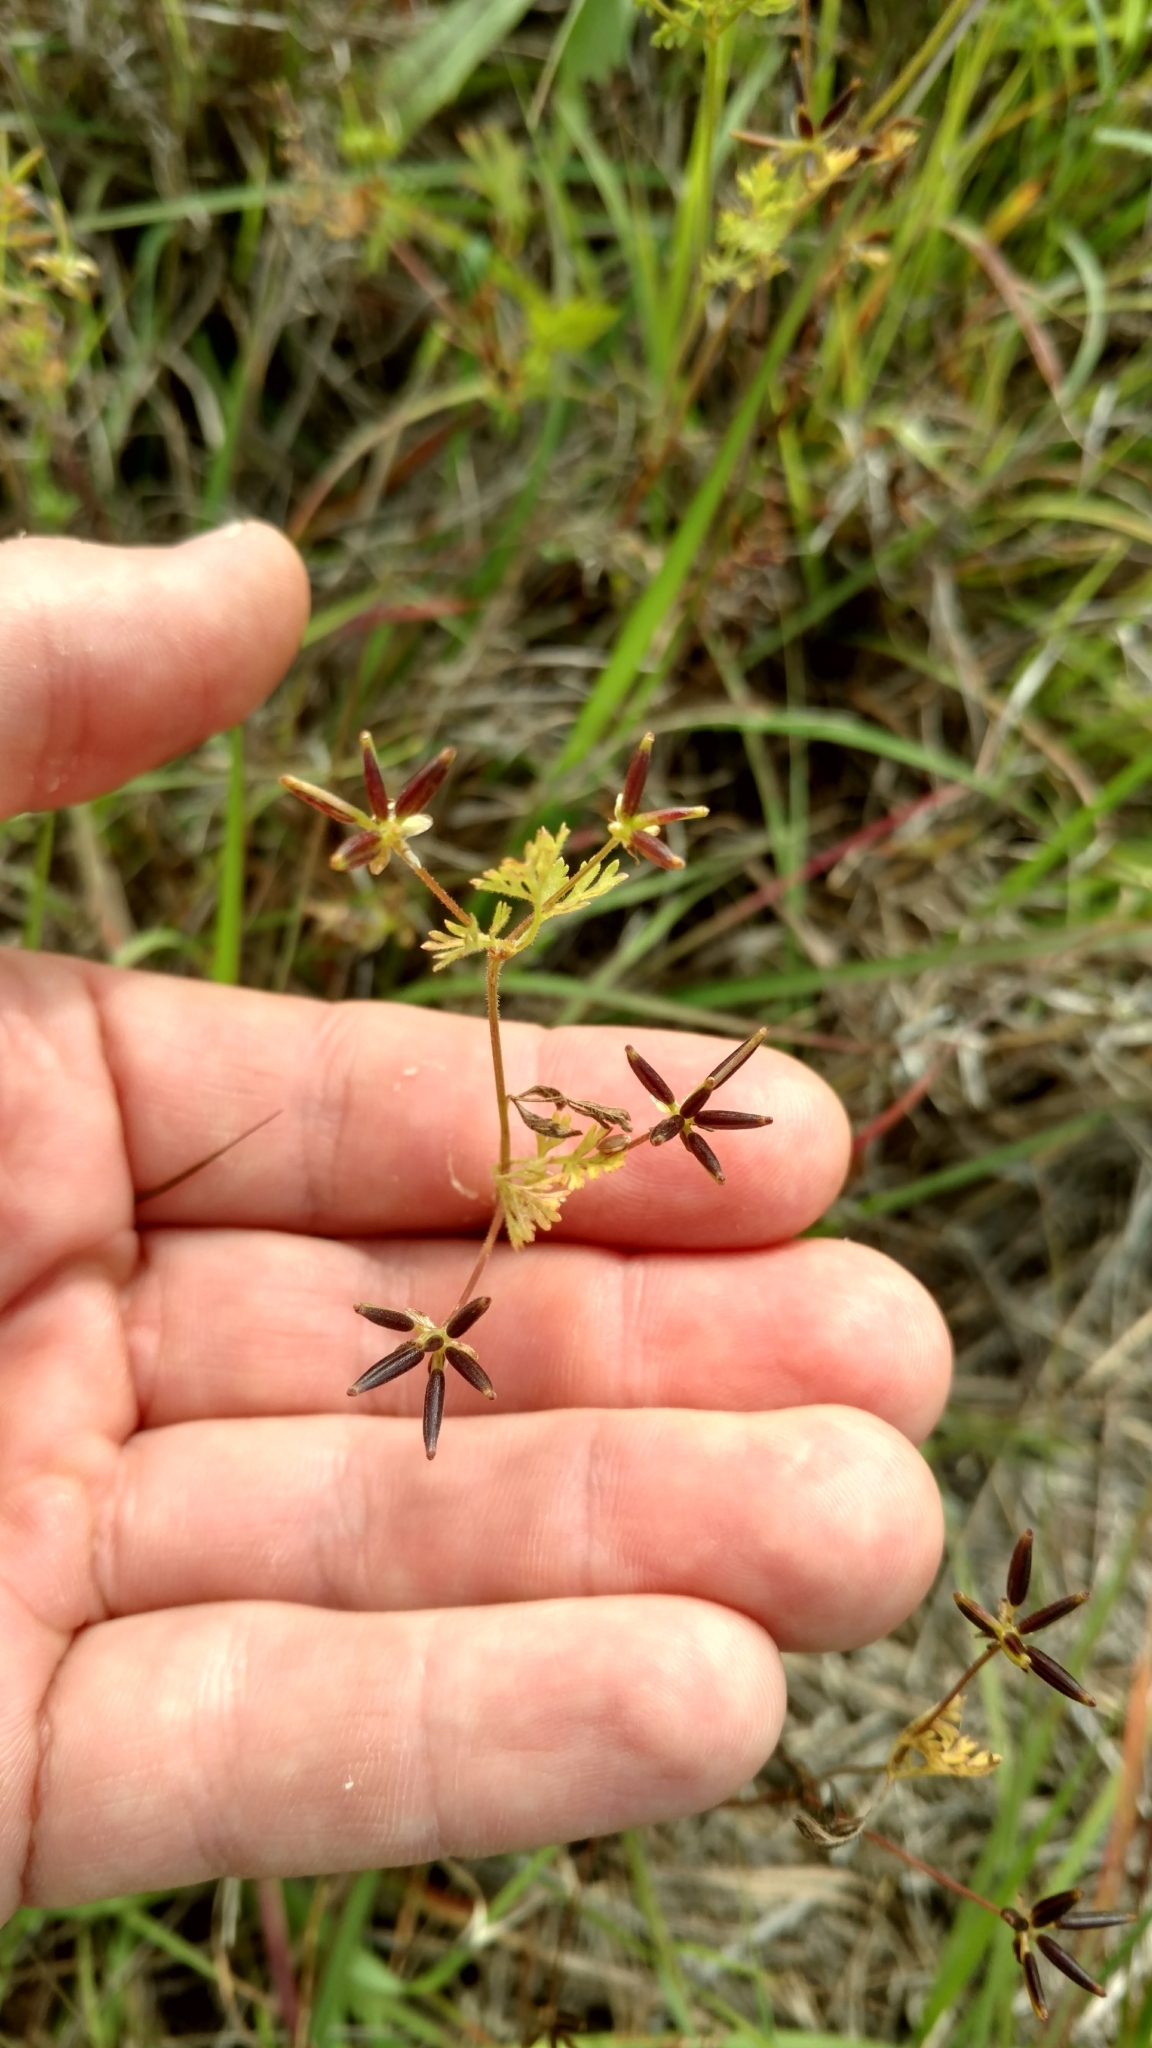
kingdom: Plantae
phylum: Tracheophyta
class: Magnoliopsida
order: Apiales
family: Apiaceae
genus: Chaerophyllum
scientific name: Chaerophyllum tainturieri
